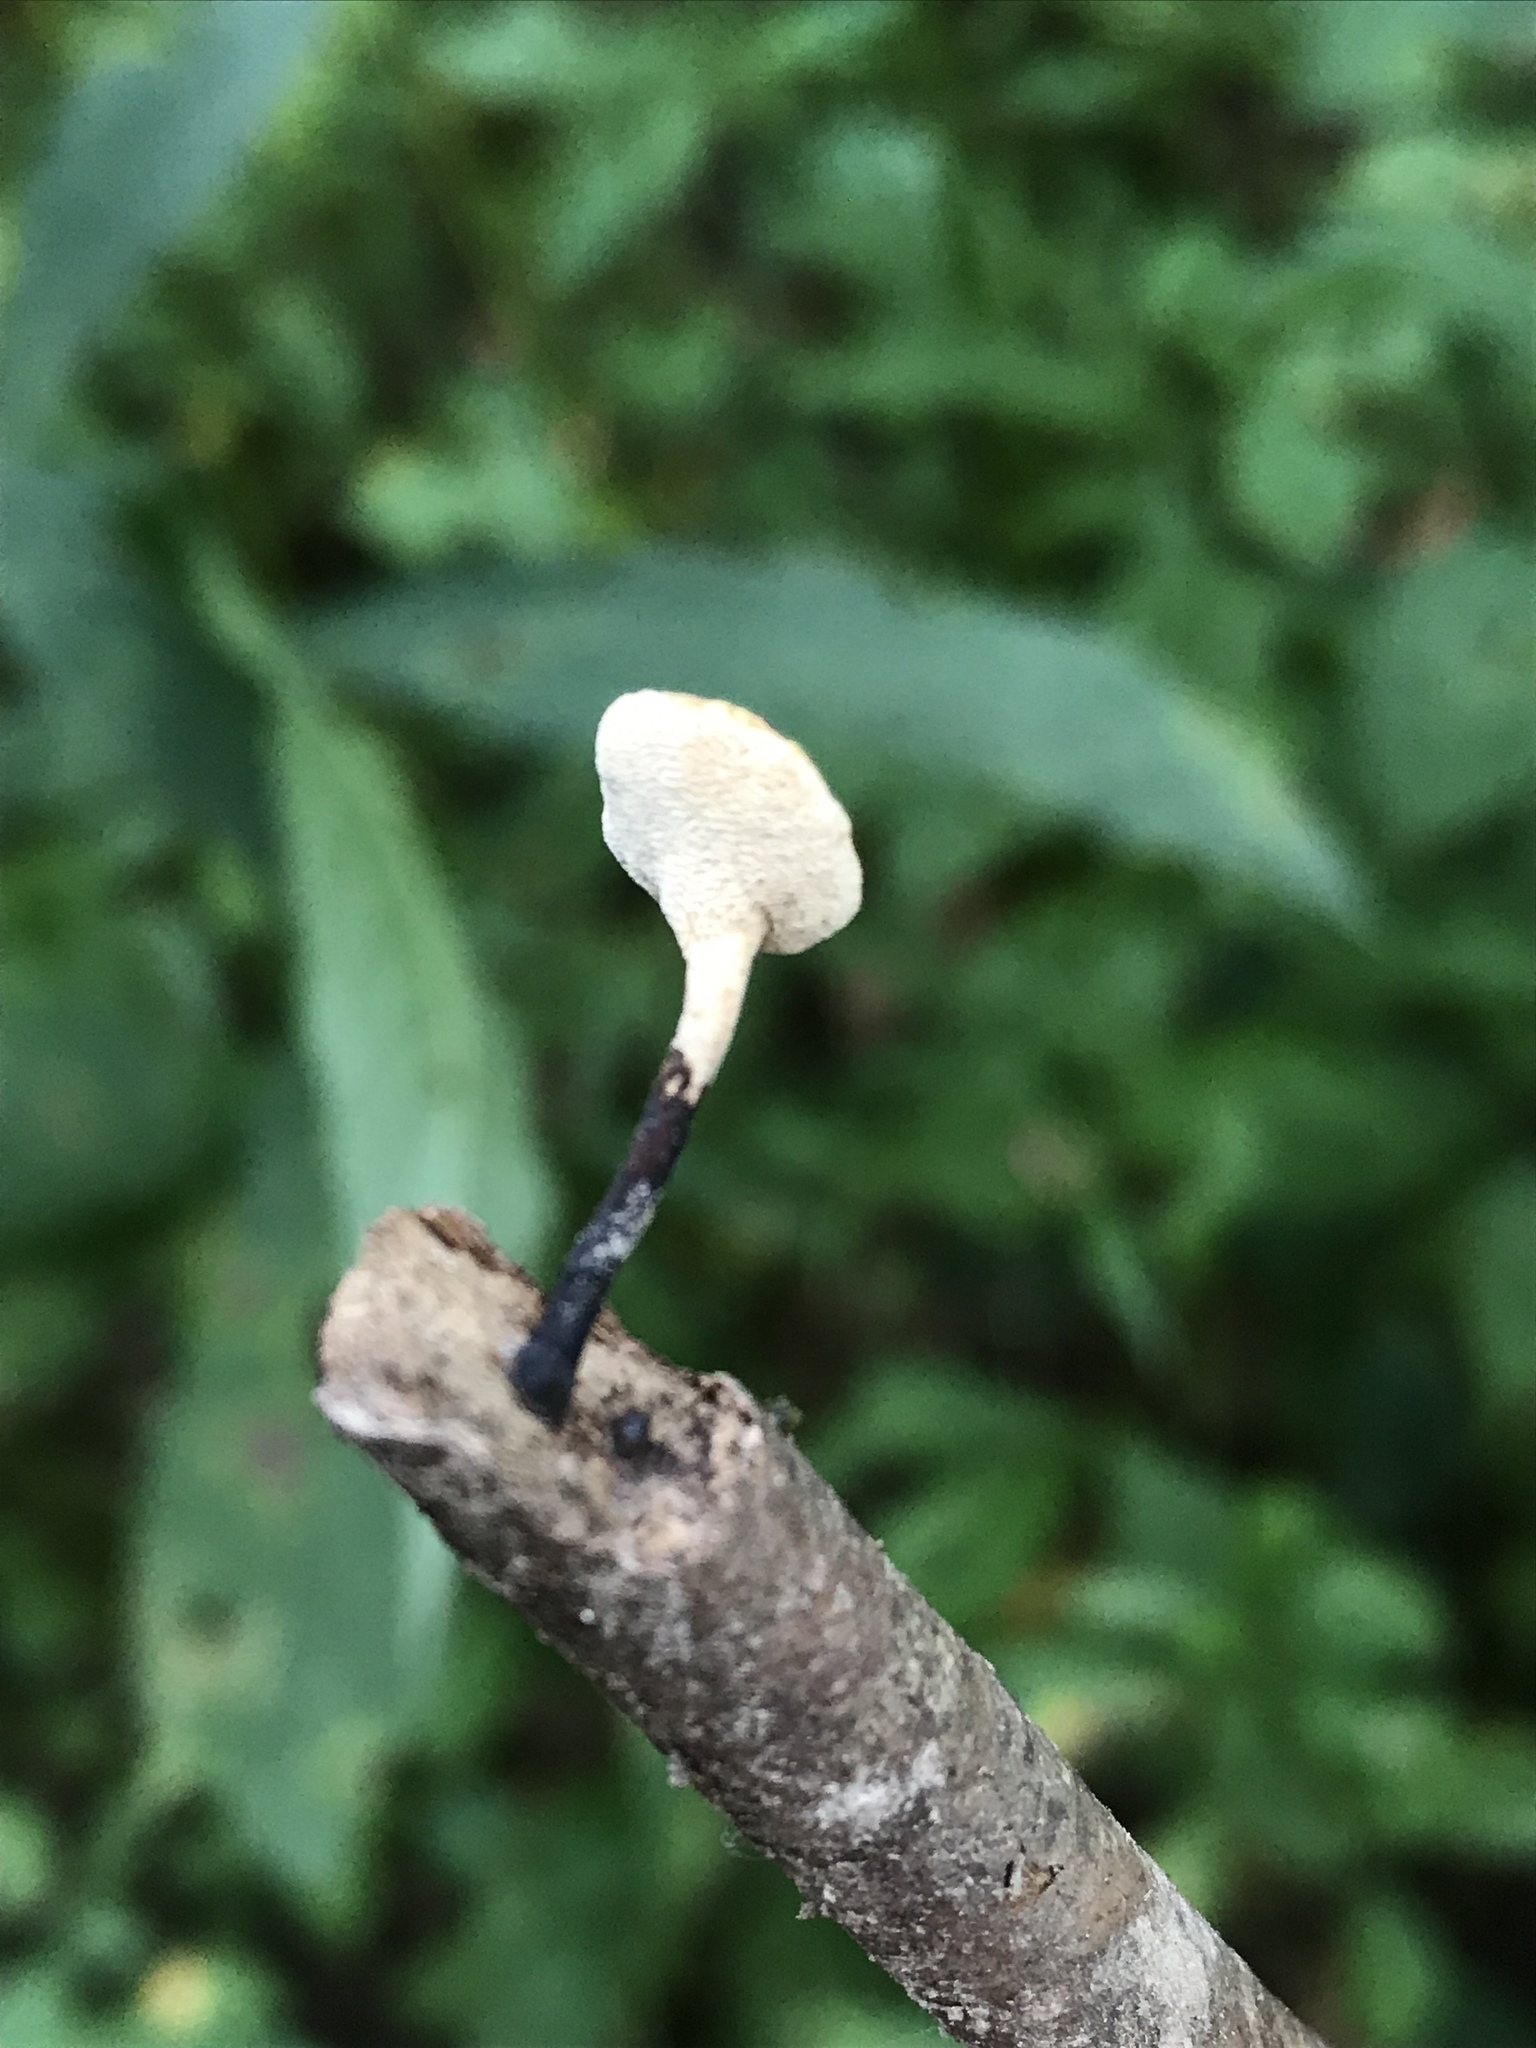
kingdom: Fungi
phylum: Basidiomycota
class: Agaricomycetes
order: Polyporales
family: Polyporaceae
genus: Cerioporus
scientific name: Cerioporus leptocephalus
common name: Blackfoot polypore
